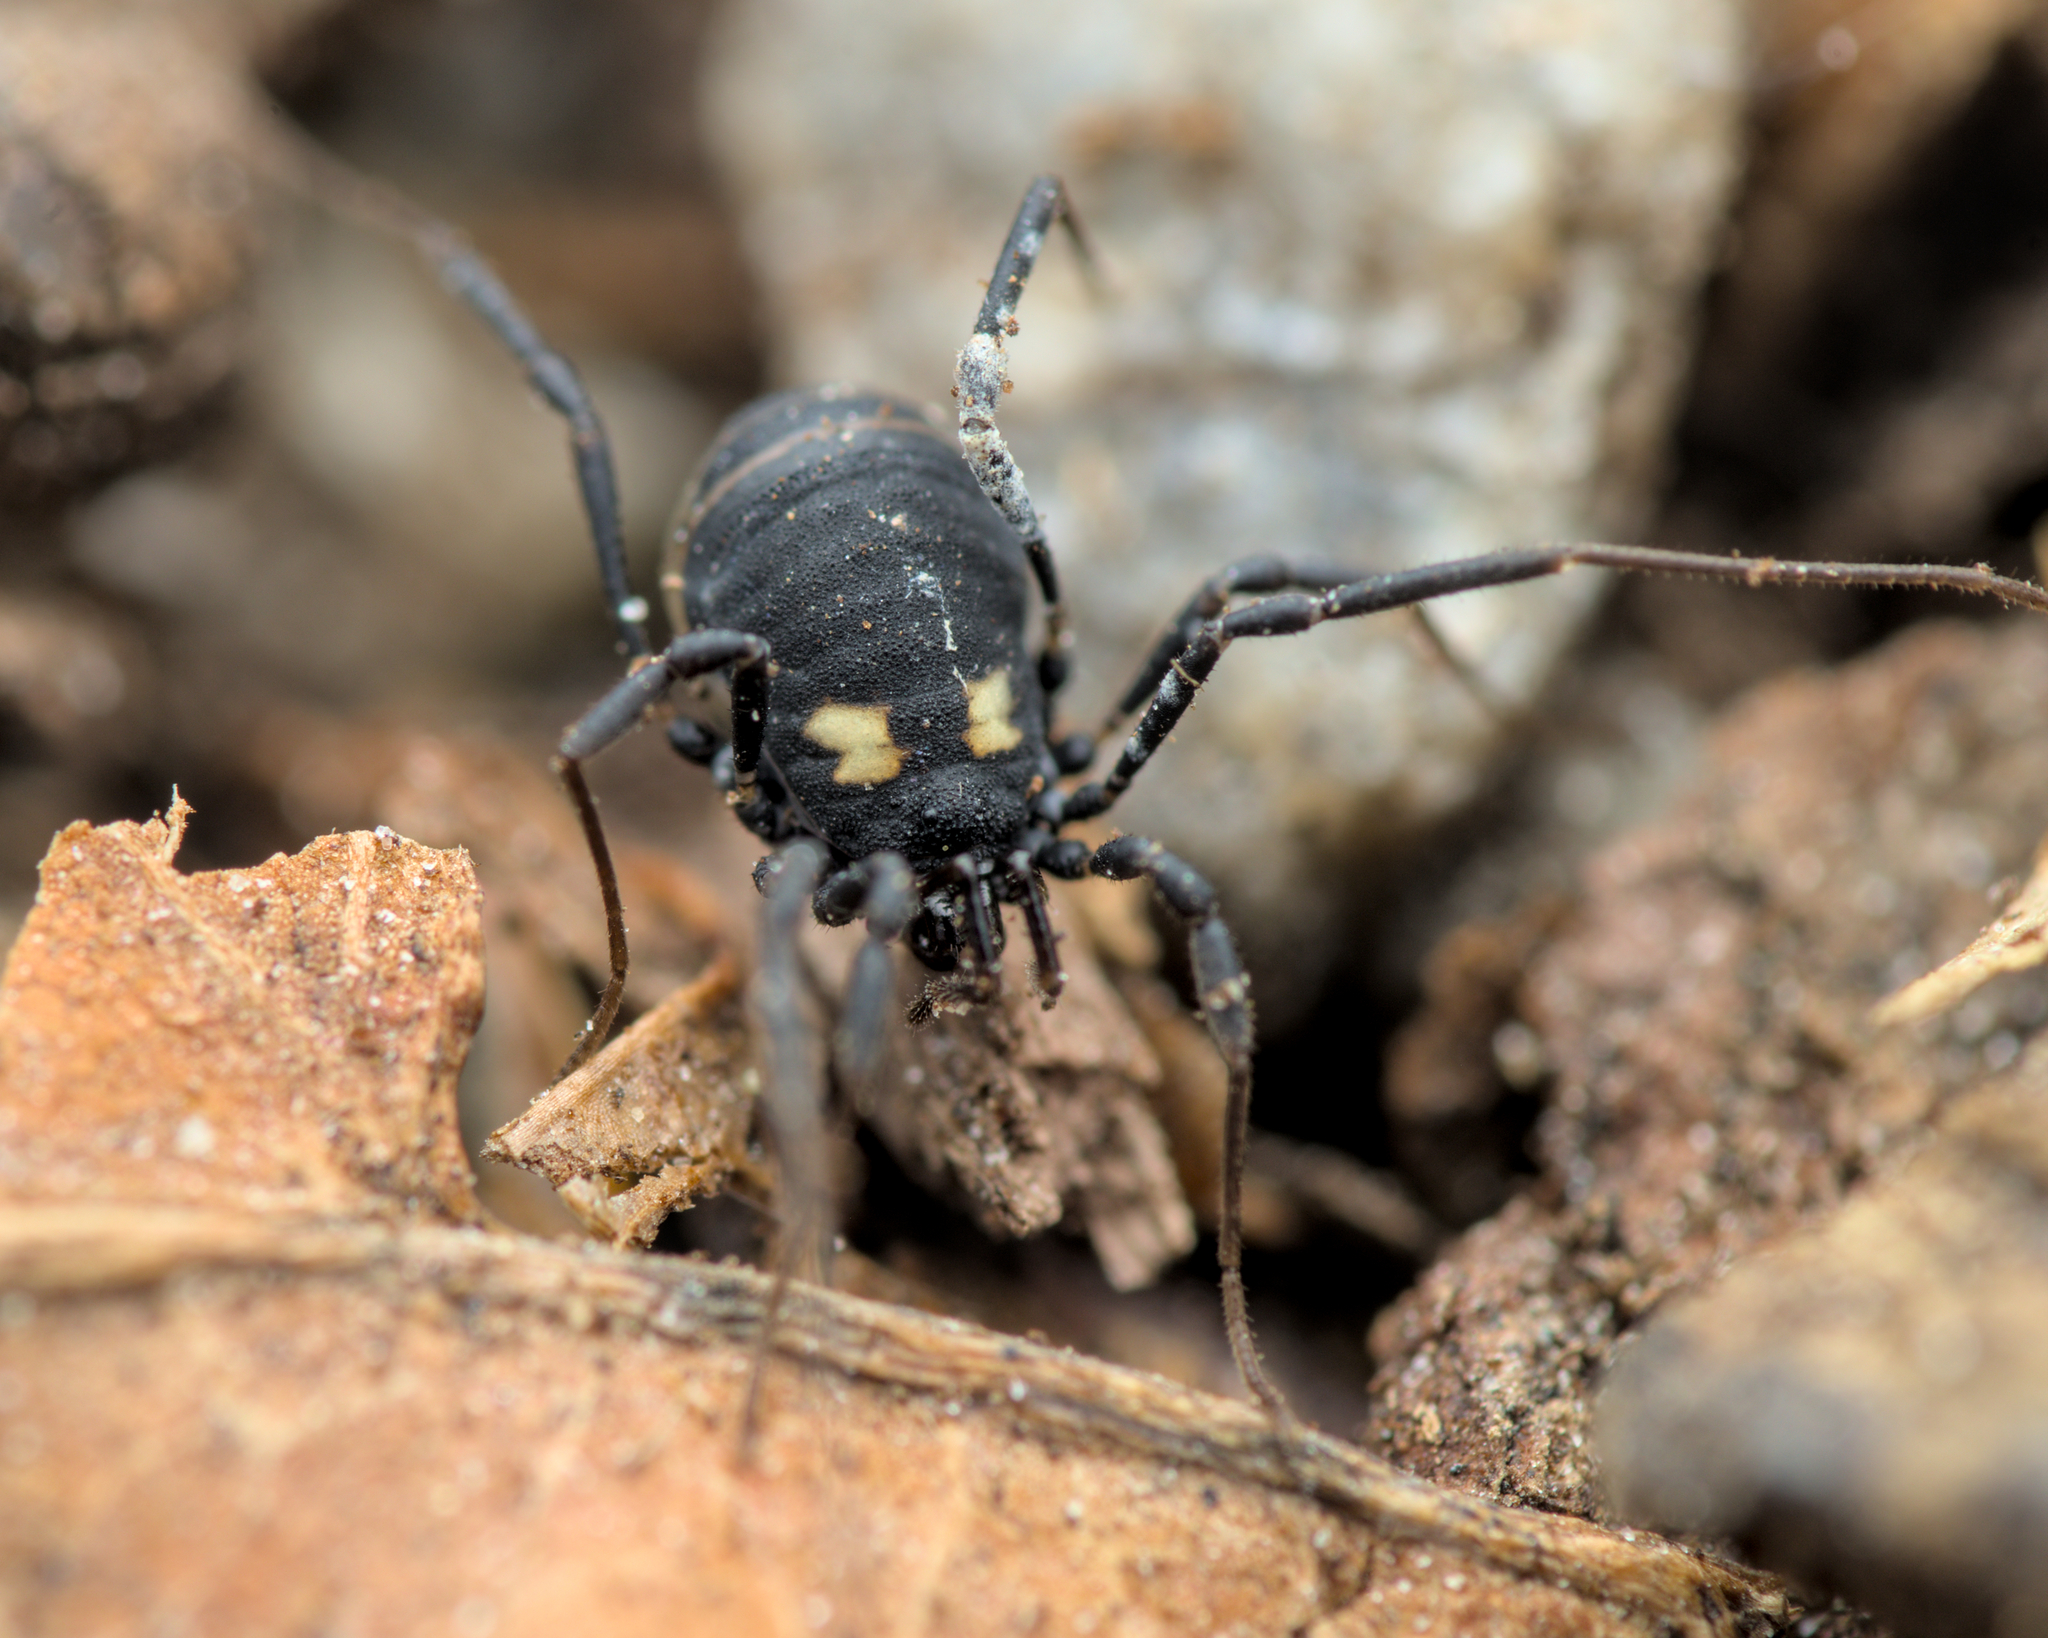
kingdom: Animalia
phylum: Arthropoda
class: Arachnida
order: Opiliones
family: Nemastomatidae
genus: Nemastoma
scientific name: Nemastoma bimaculatum
